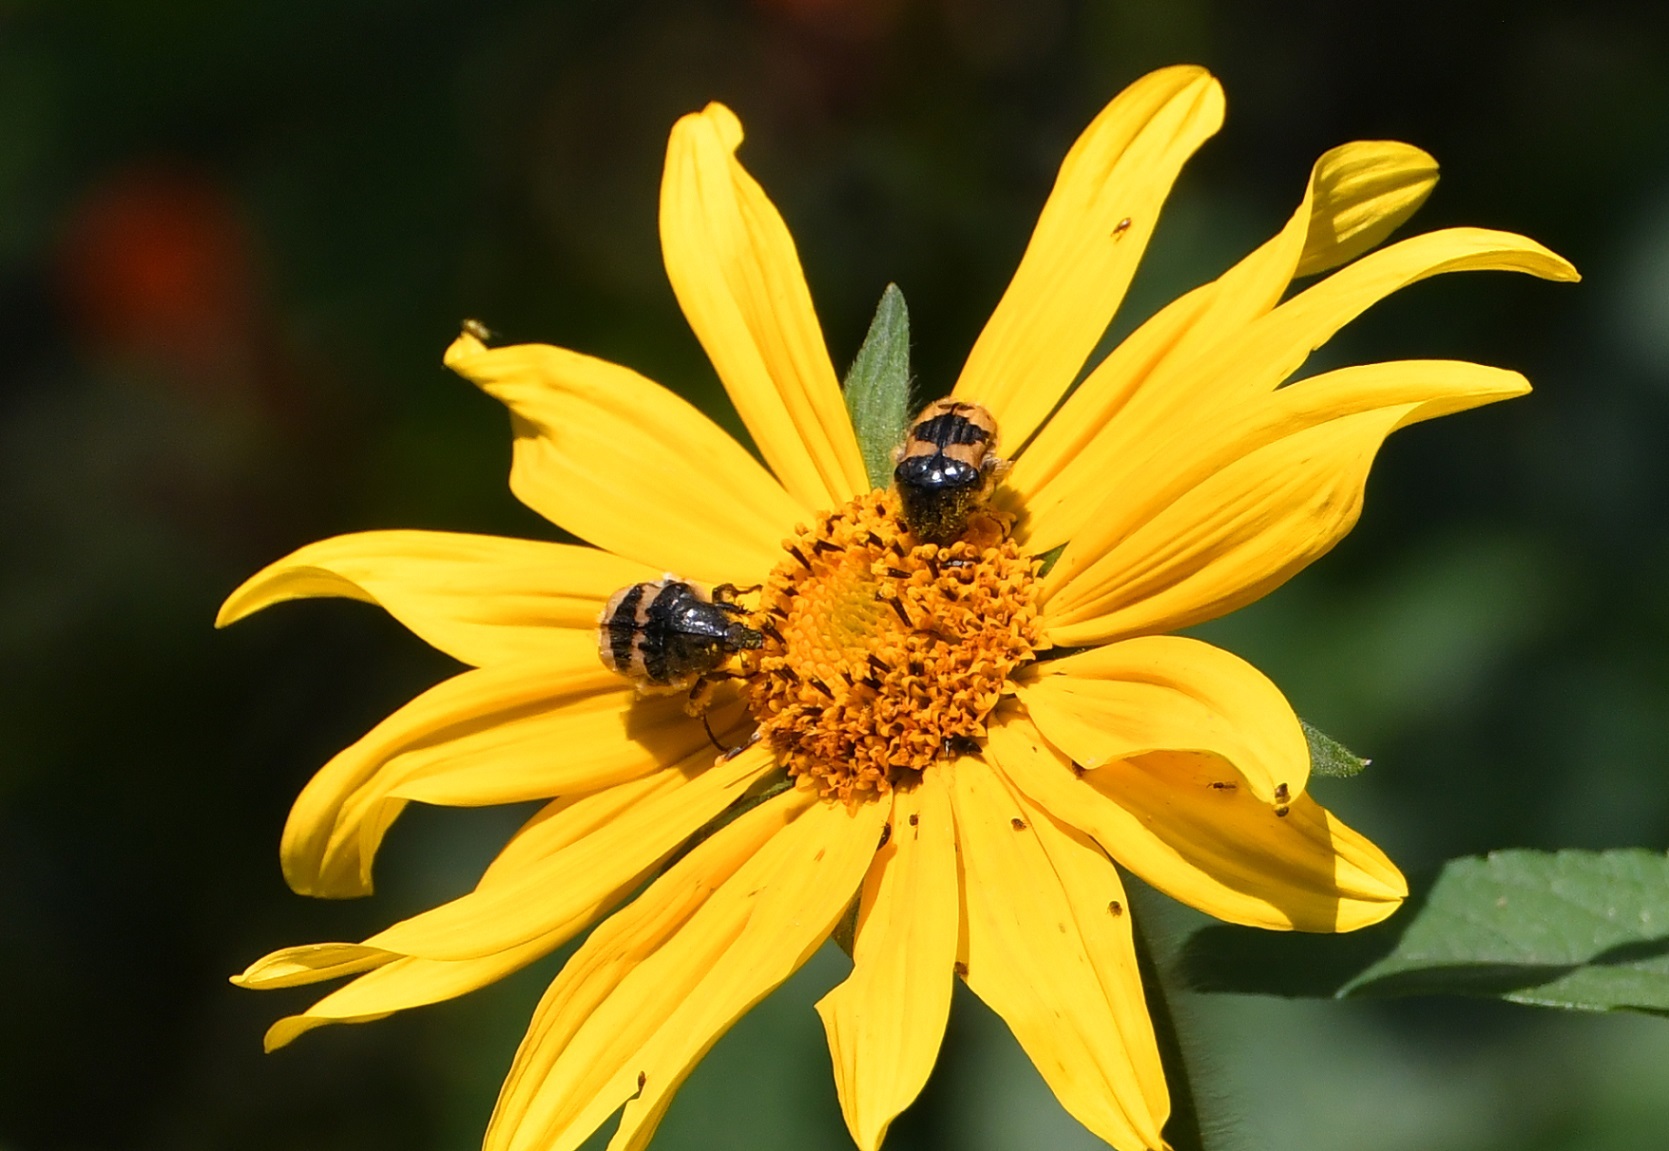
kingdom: Animalia
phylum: Arthropoda
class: Insecta
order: Coleoptera
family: Scarabaeidae
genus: Euphoria
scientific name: Euphoria basalis
